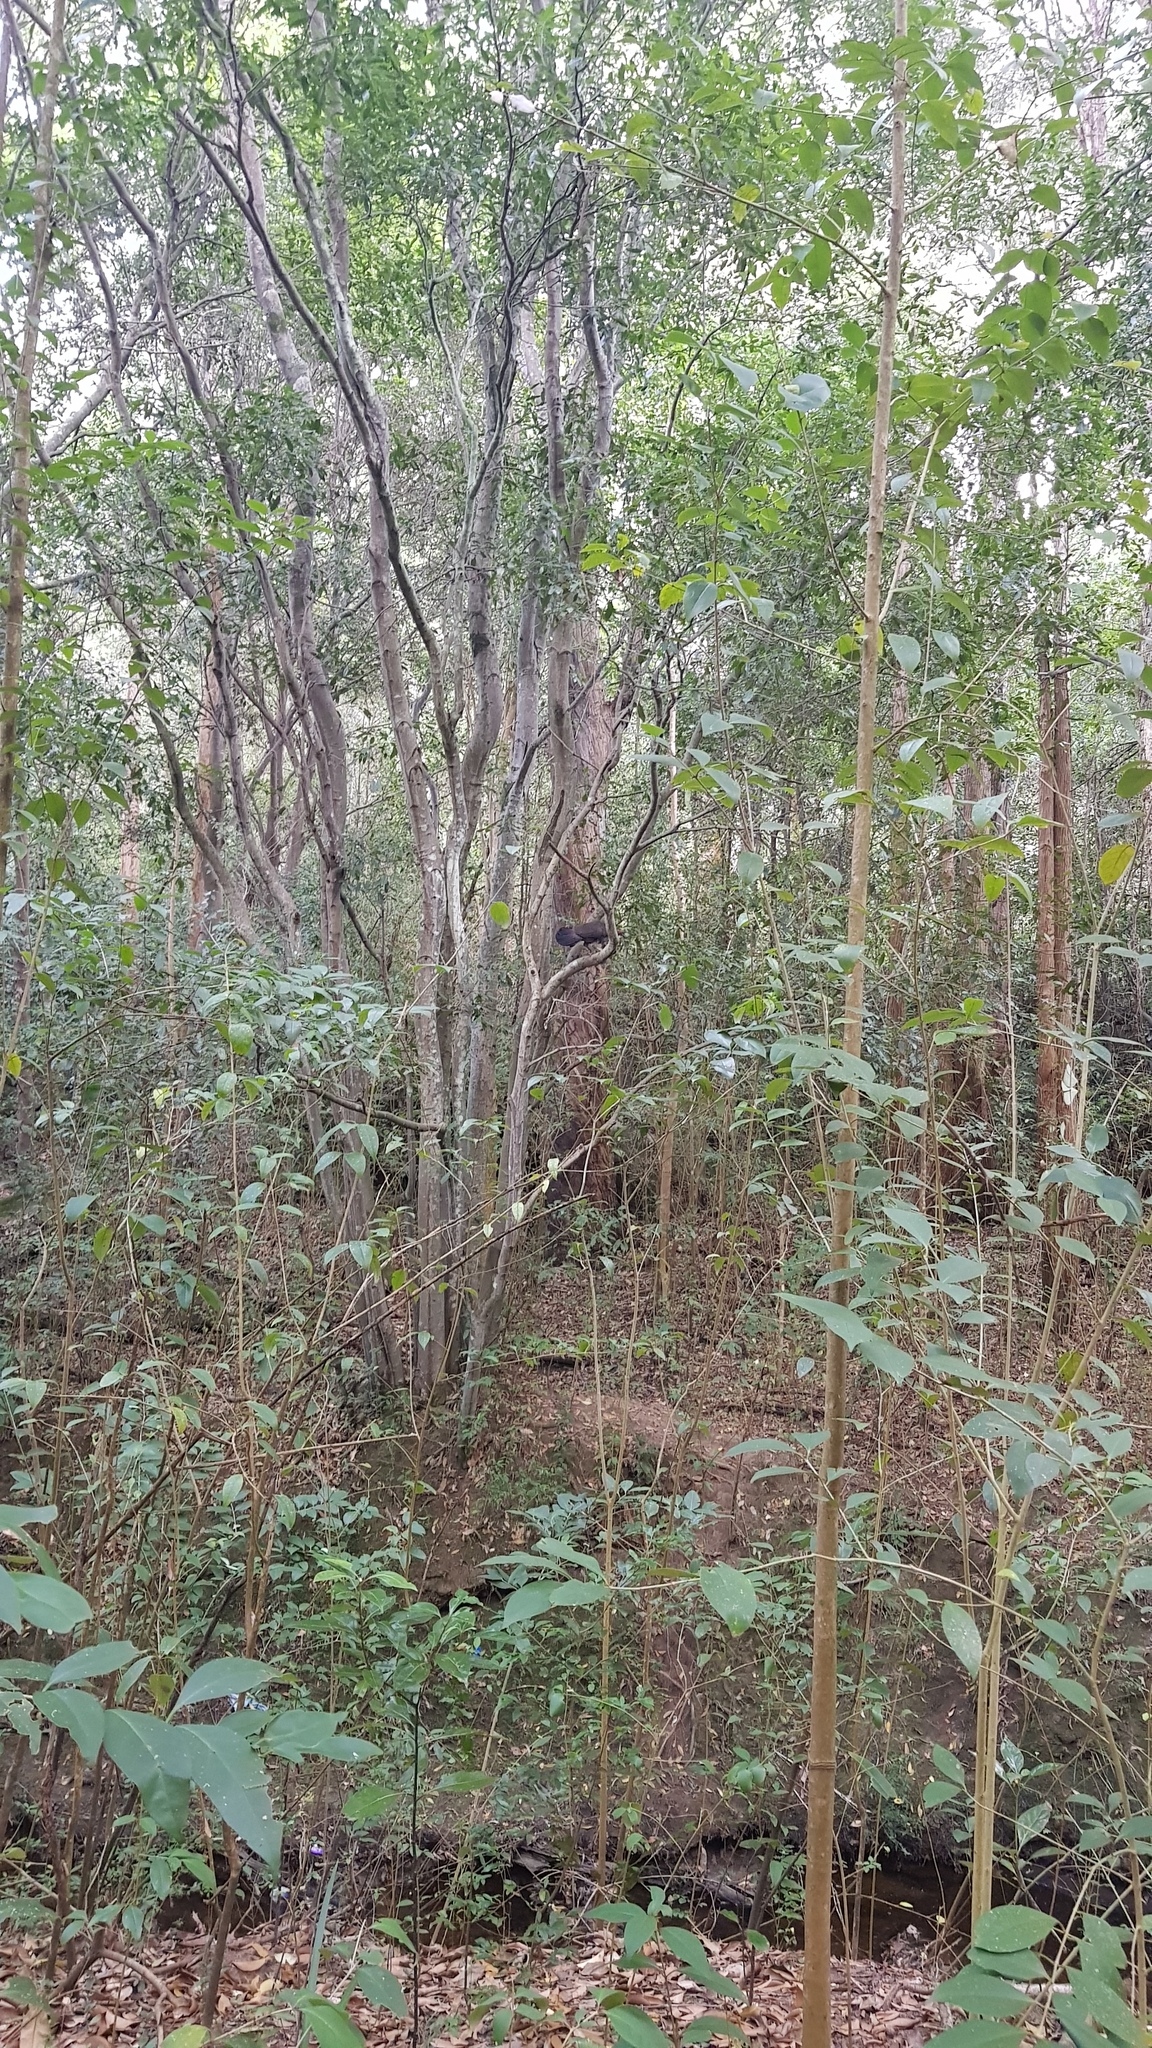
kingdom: Animalia
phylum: Chordata
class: Aves
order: Galliformes
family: Megapodiidae
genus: Alectura
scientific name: Alectura lathami
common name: Australian brushturkey
